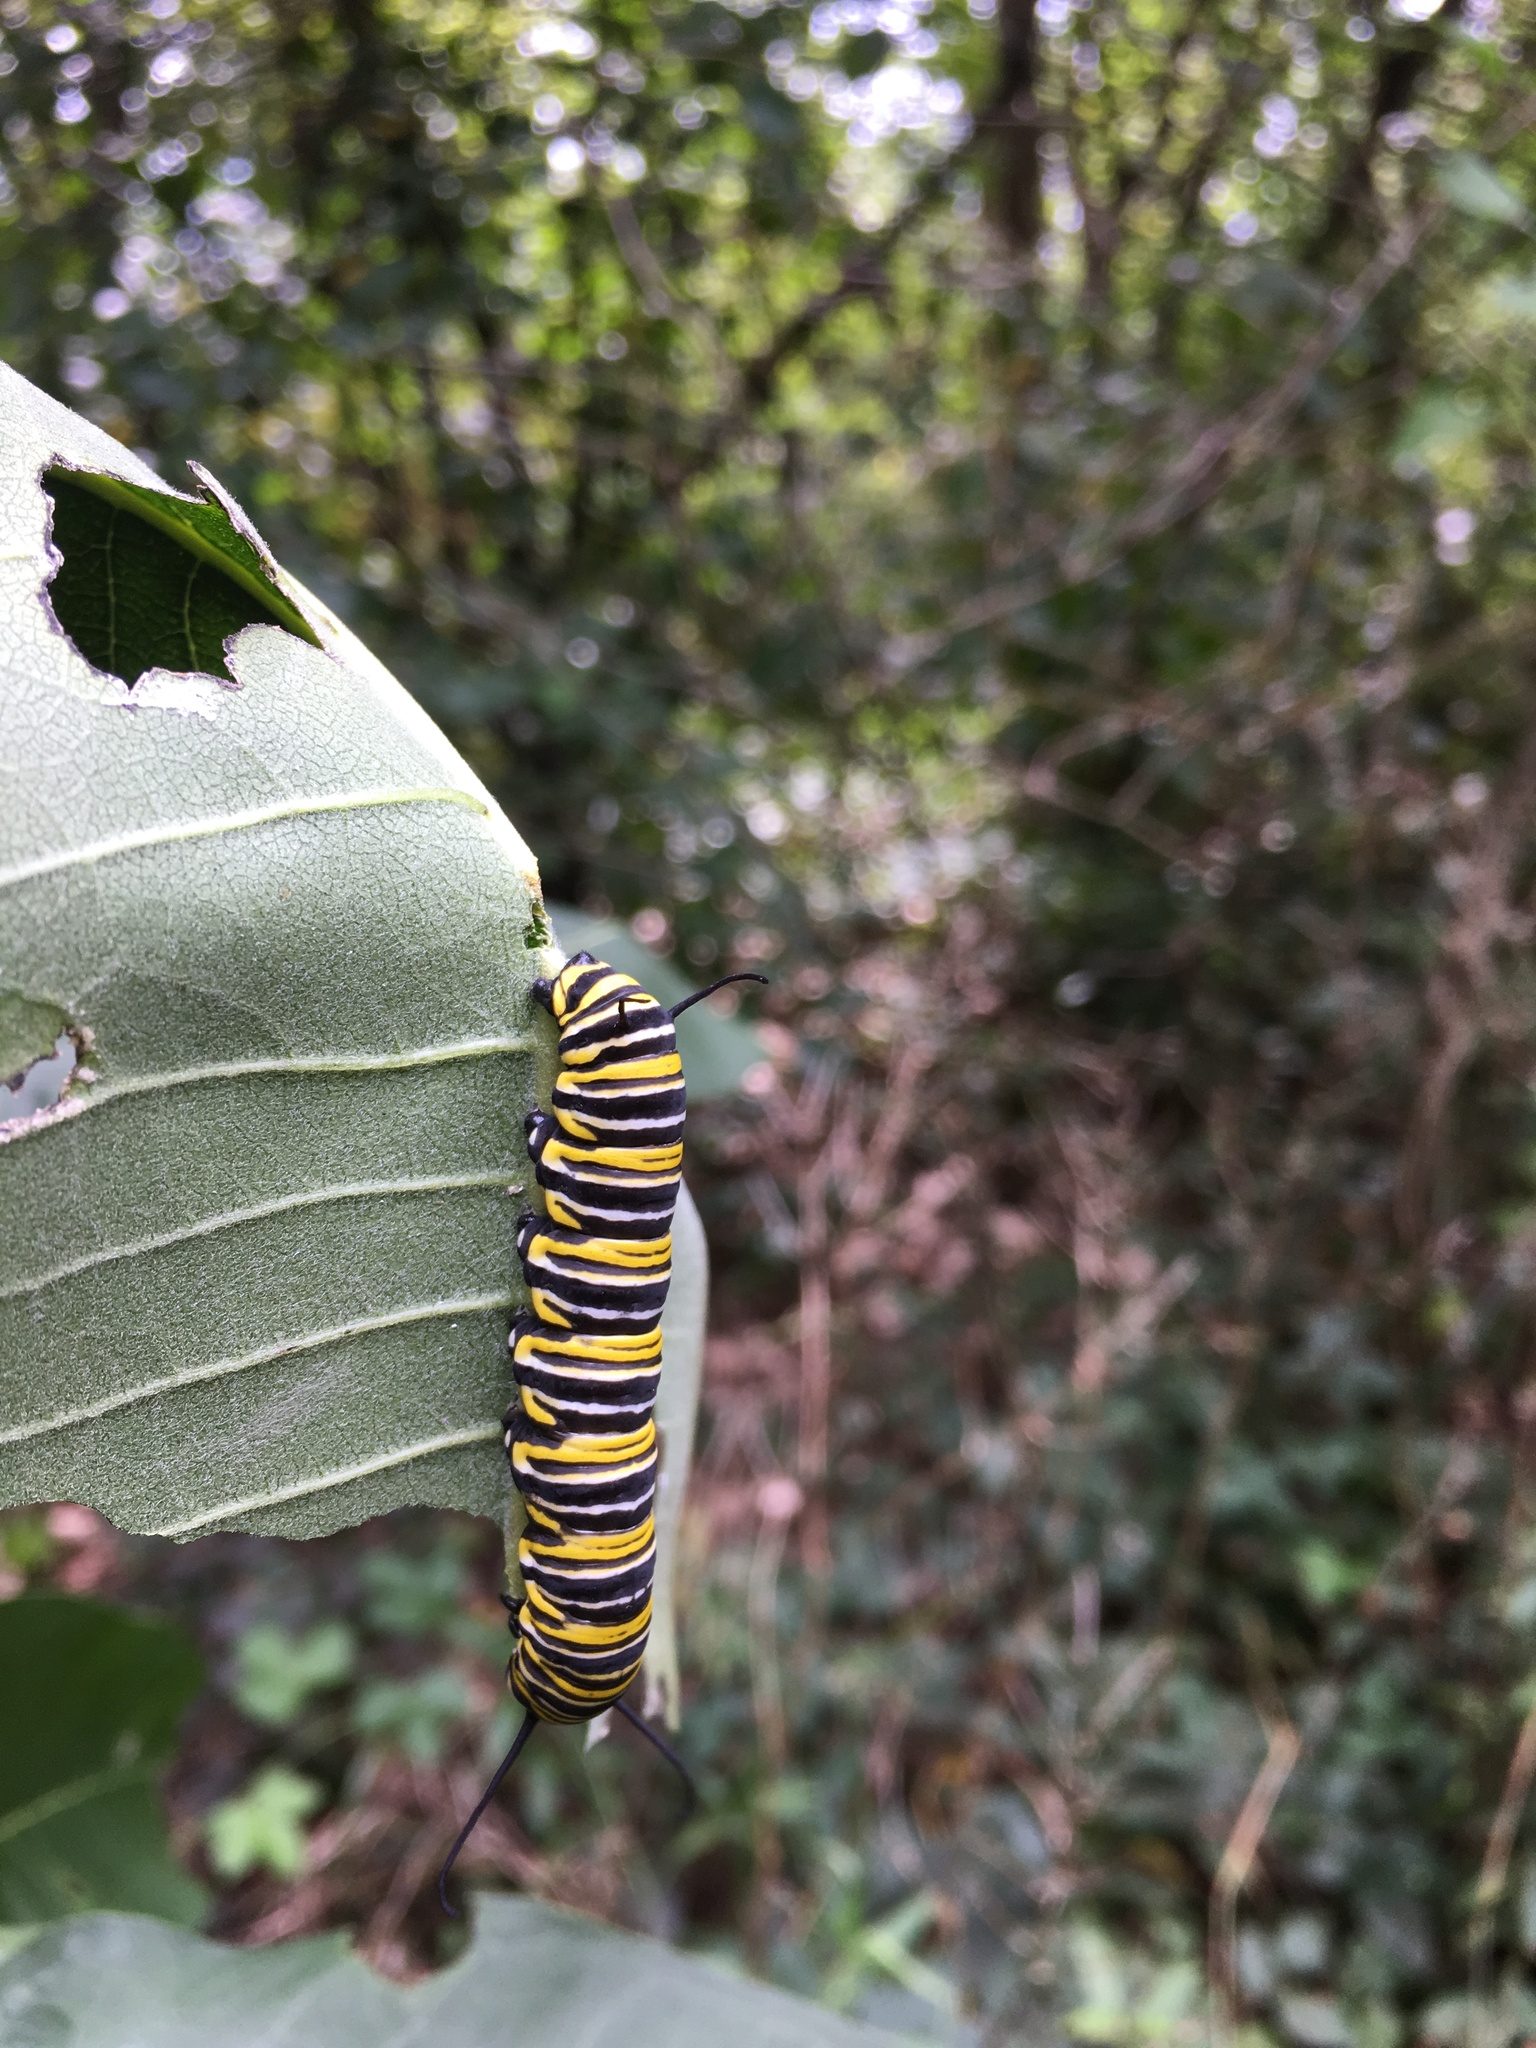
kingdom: Animalia
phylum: Arthropoda
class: Insecta
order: Lepidoptera
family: Nymphalidae
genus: Danaus
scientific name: Danaus plexippus
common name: Monarch
